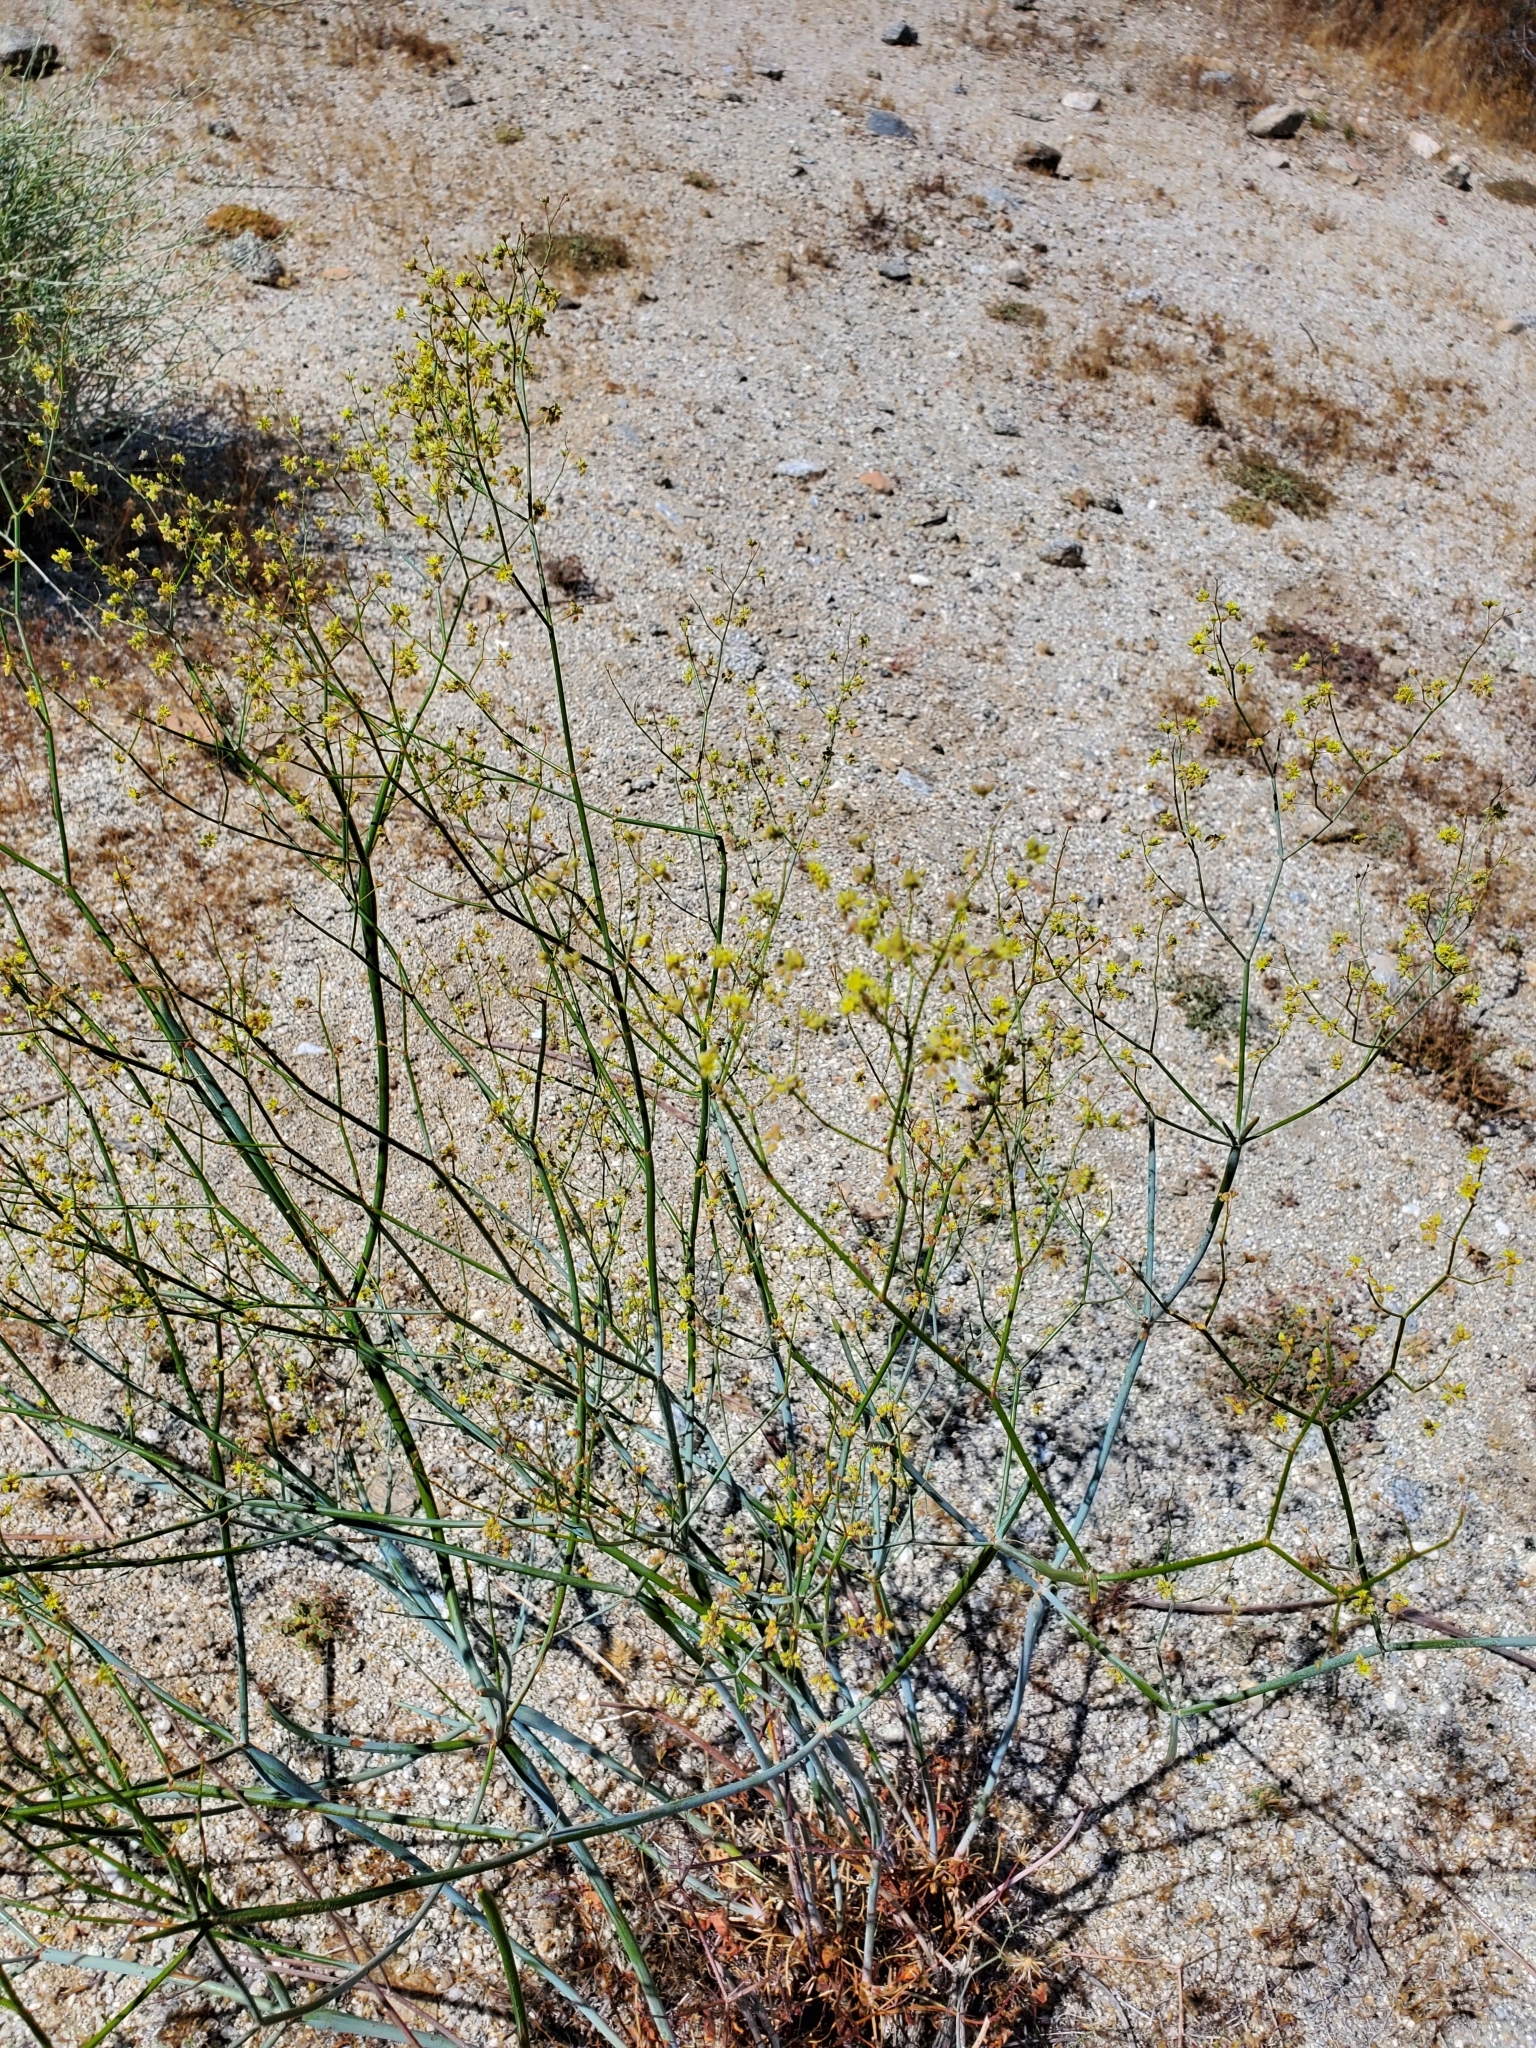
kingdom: Plantae
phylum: Tracheophyta
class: Magnoliopsida
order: Caryophyllales
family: Polygonaceae
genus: Eriogonum
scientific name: Eriogonum inflatum
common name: Desert trumpet
